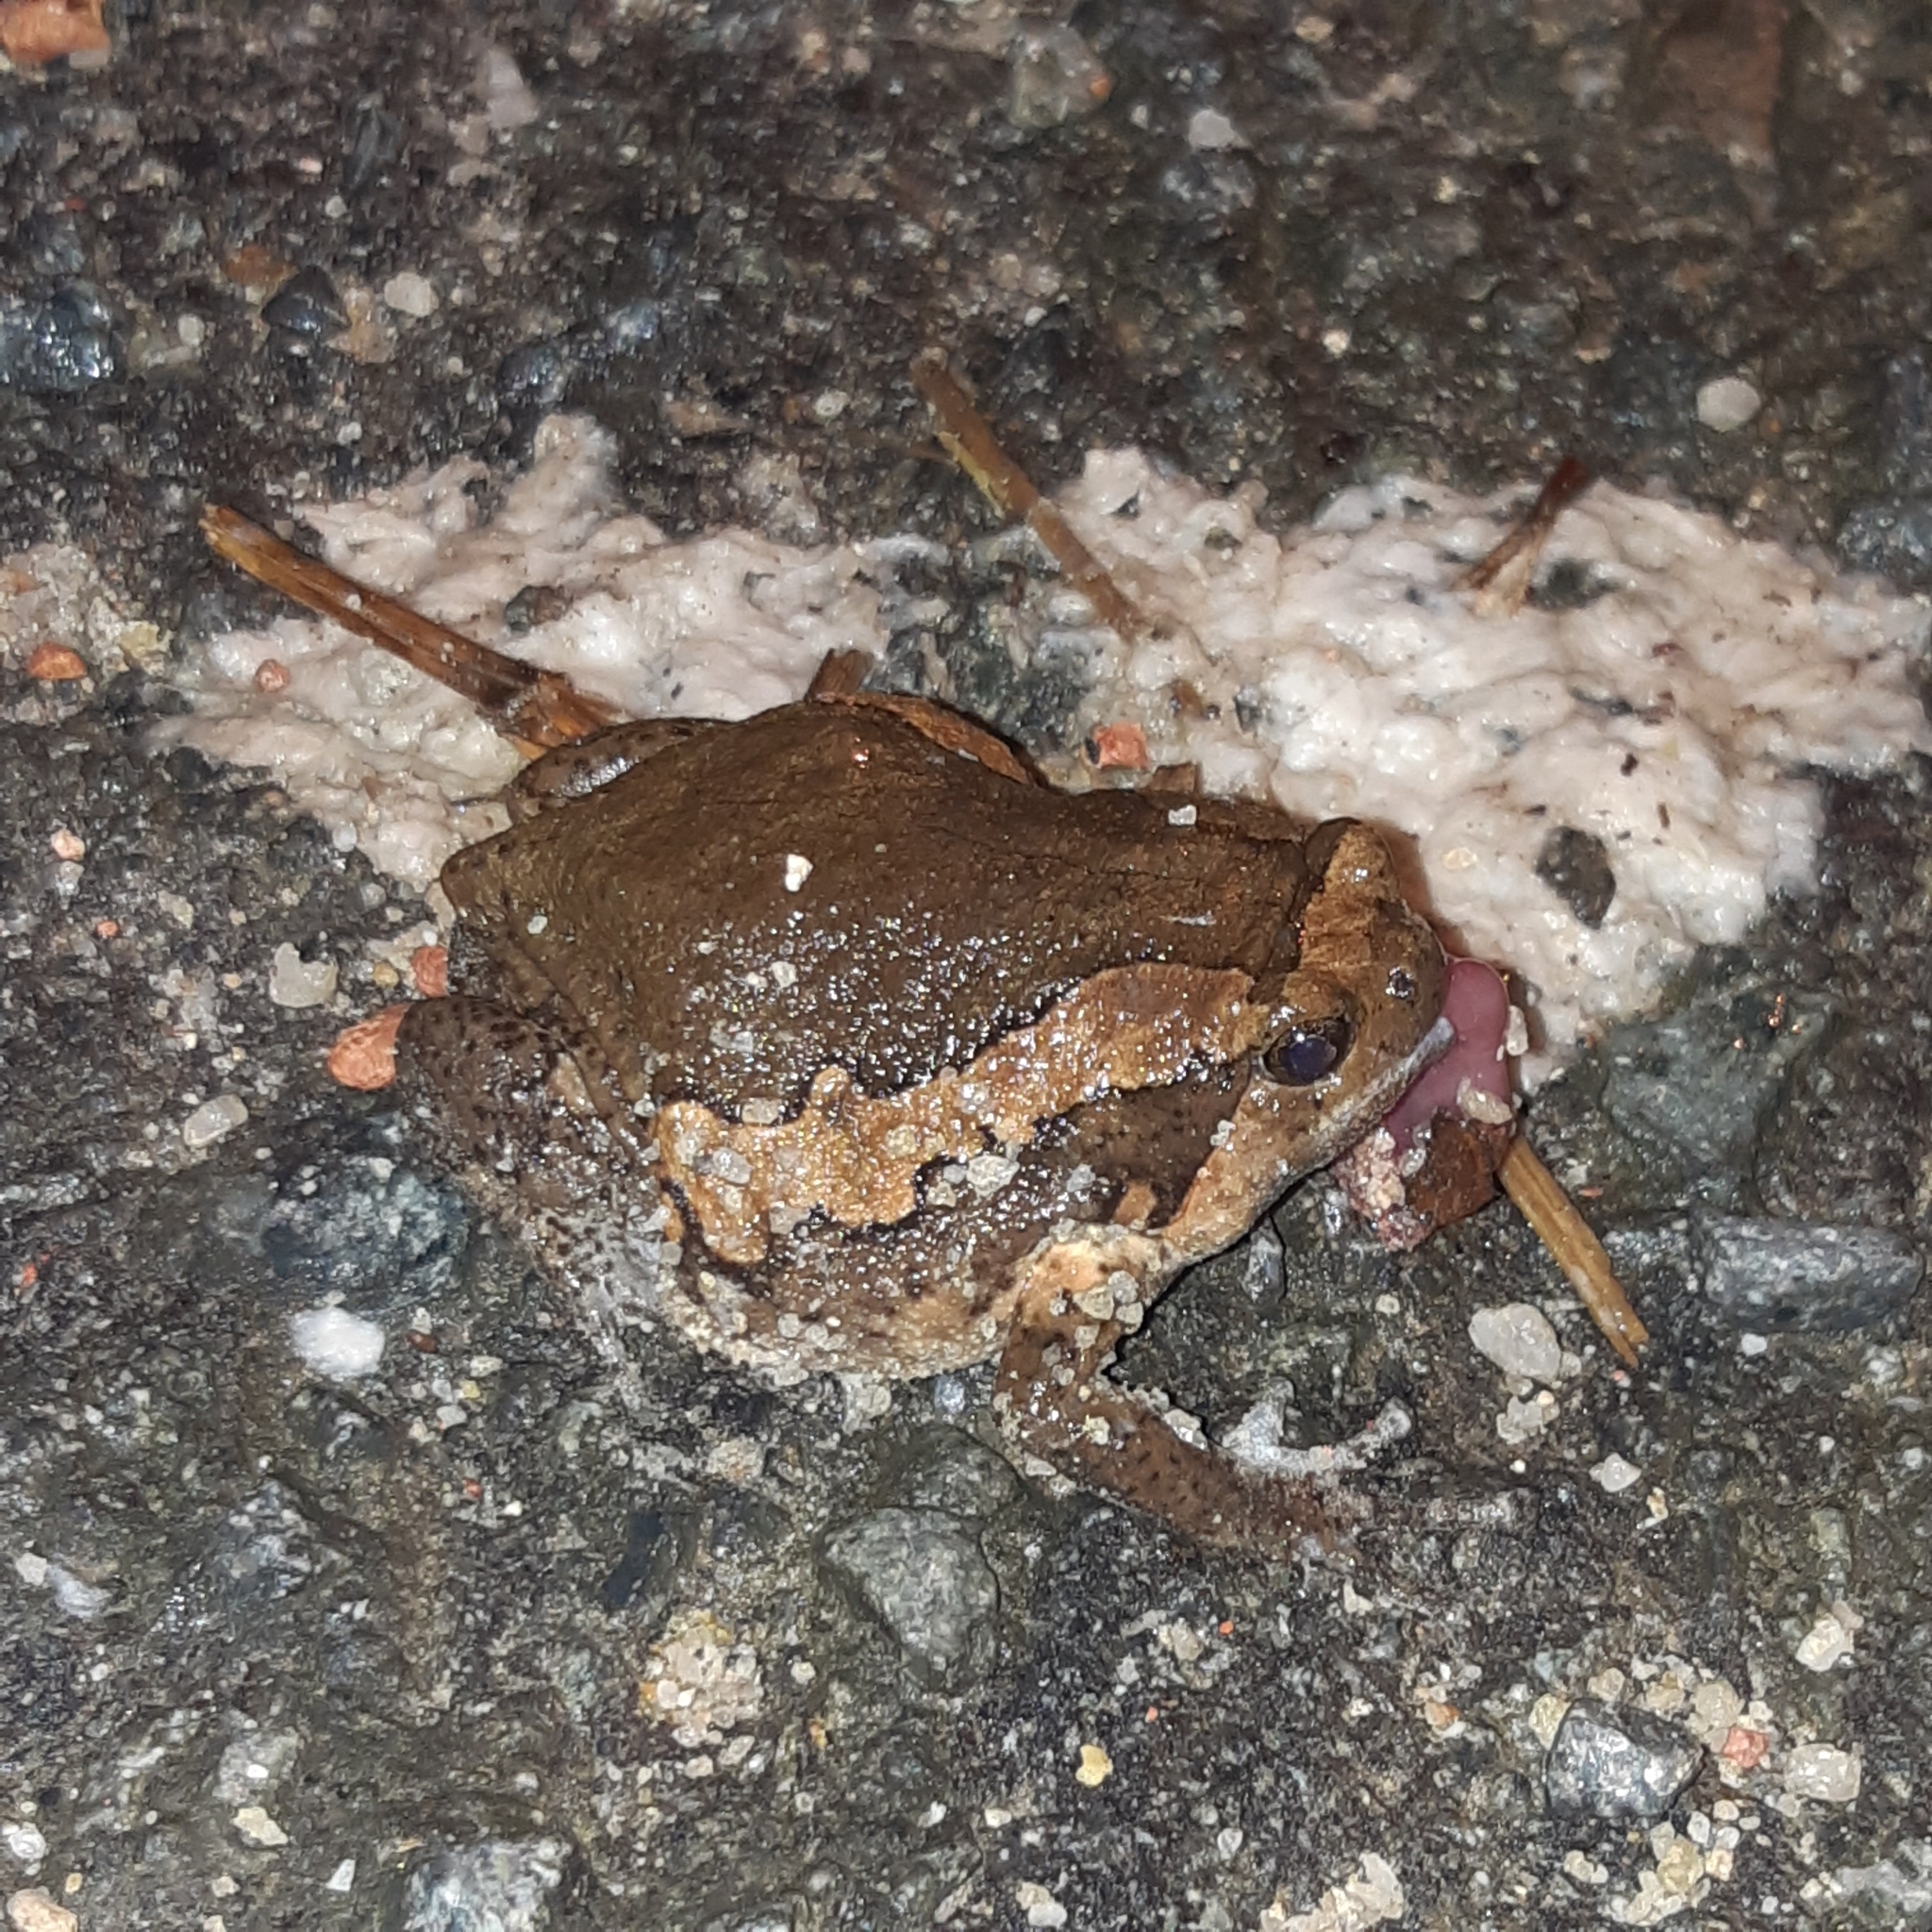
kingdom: Animalia
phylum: Chordata
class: Amphibia
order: Anura
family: Microhylidae
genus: Kaloula
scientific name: Kaloula pulchra
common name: Common,banded bullfrog
